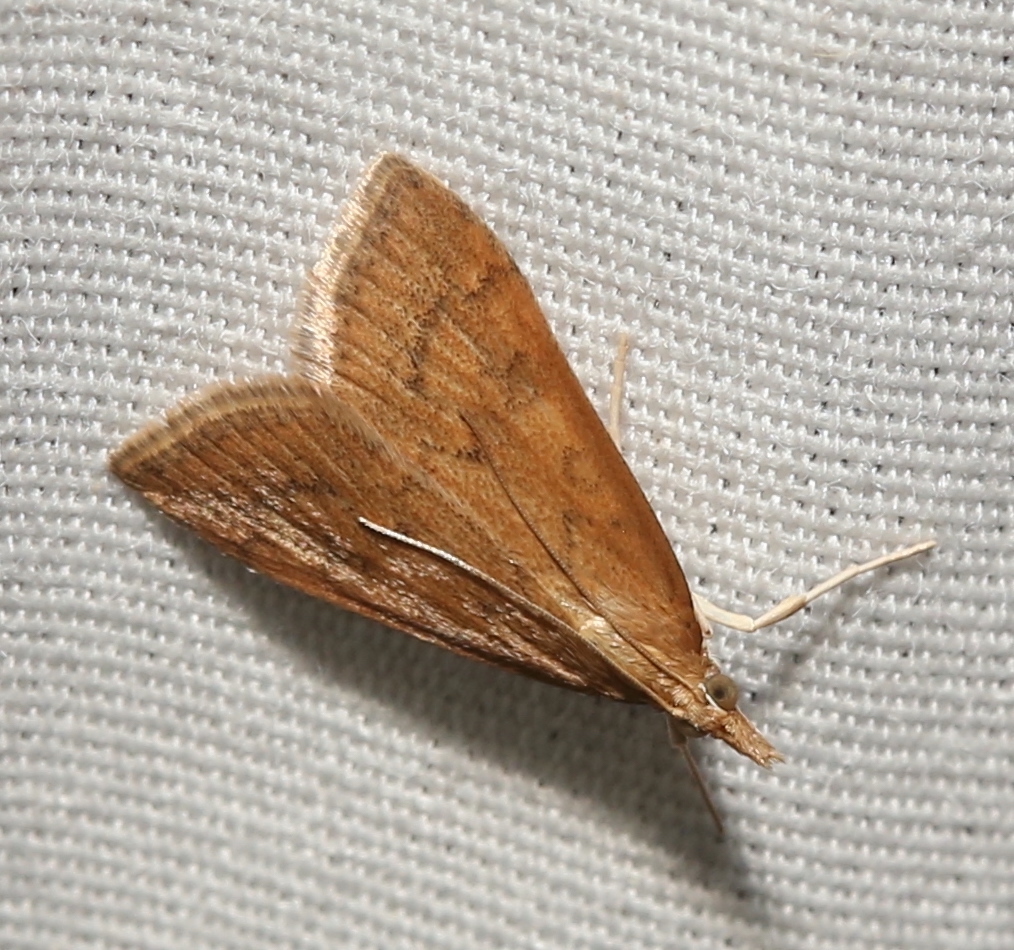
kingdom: Animalia
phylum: Arthropoda
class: Insecta
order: Lepidoptera
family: Crambidae
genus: Udea
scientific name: Udea rubigalis
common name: Celery leaftier moth
